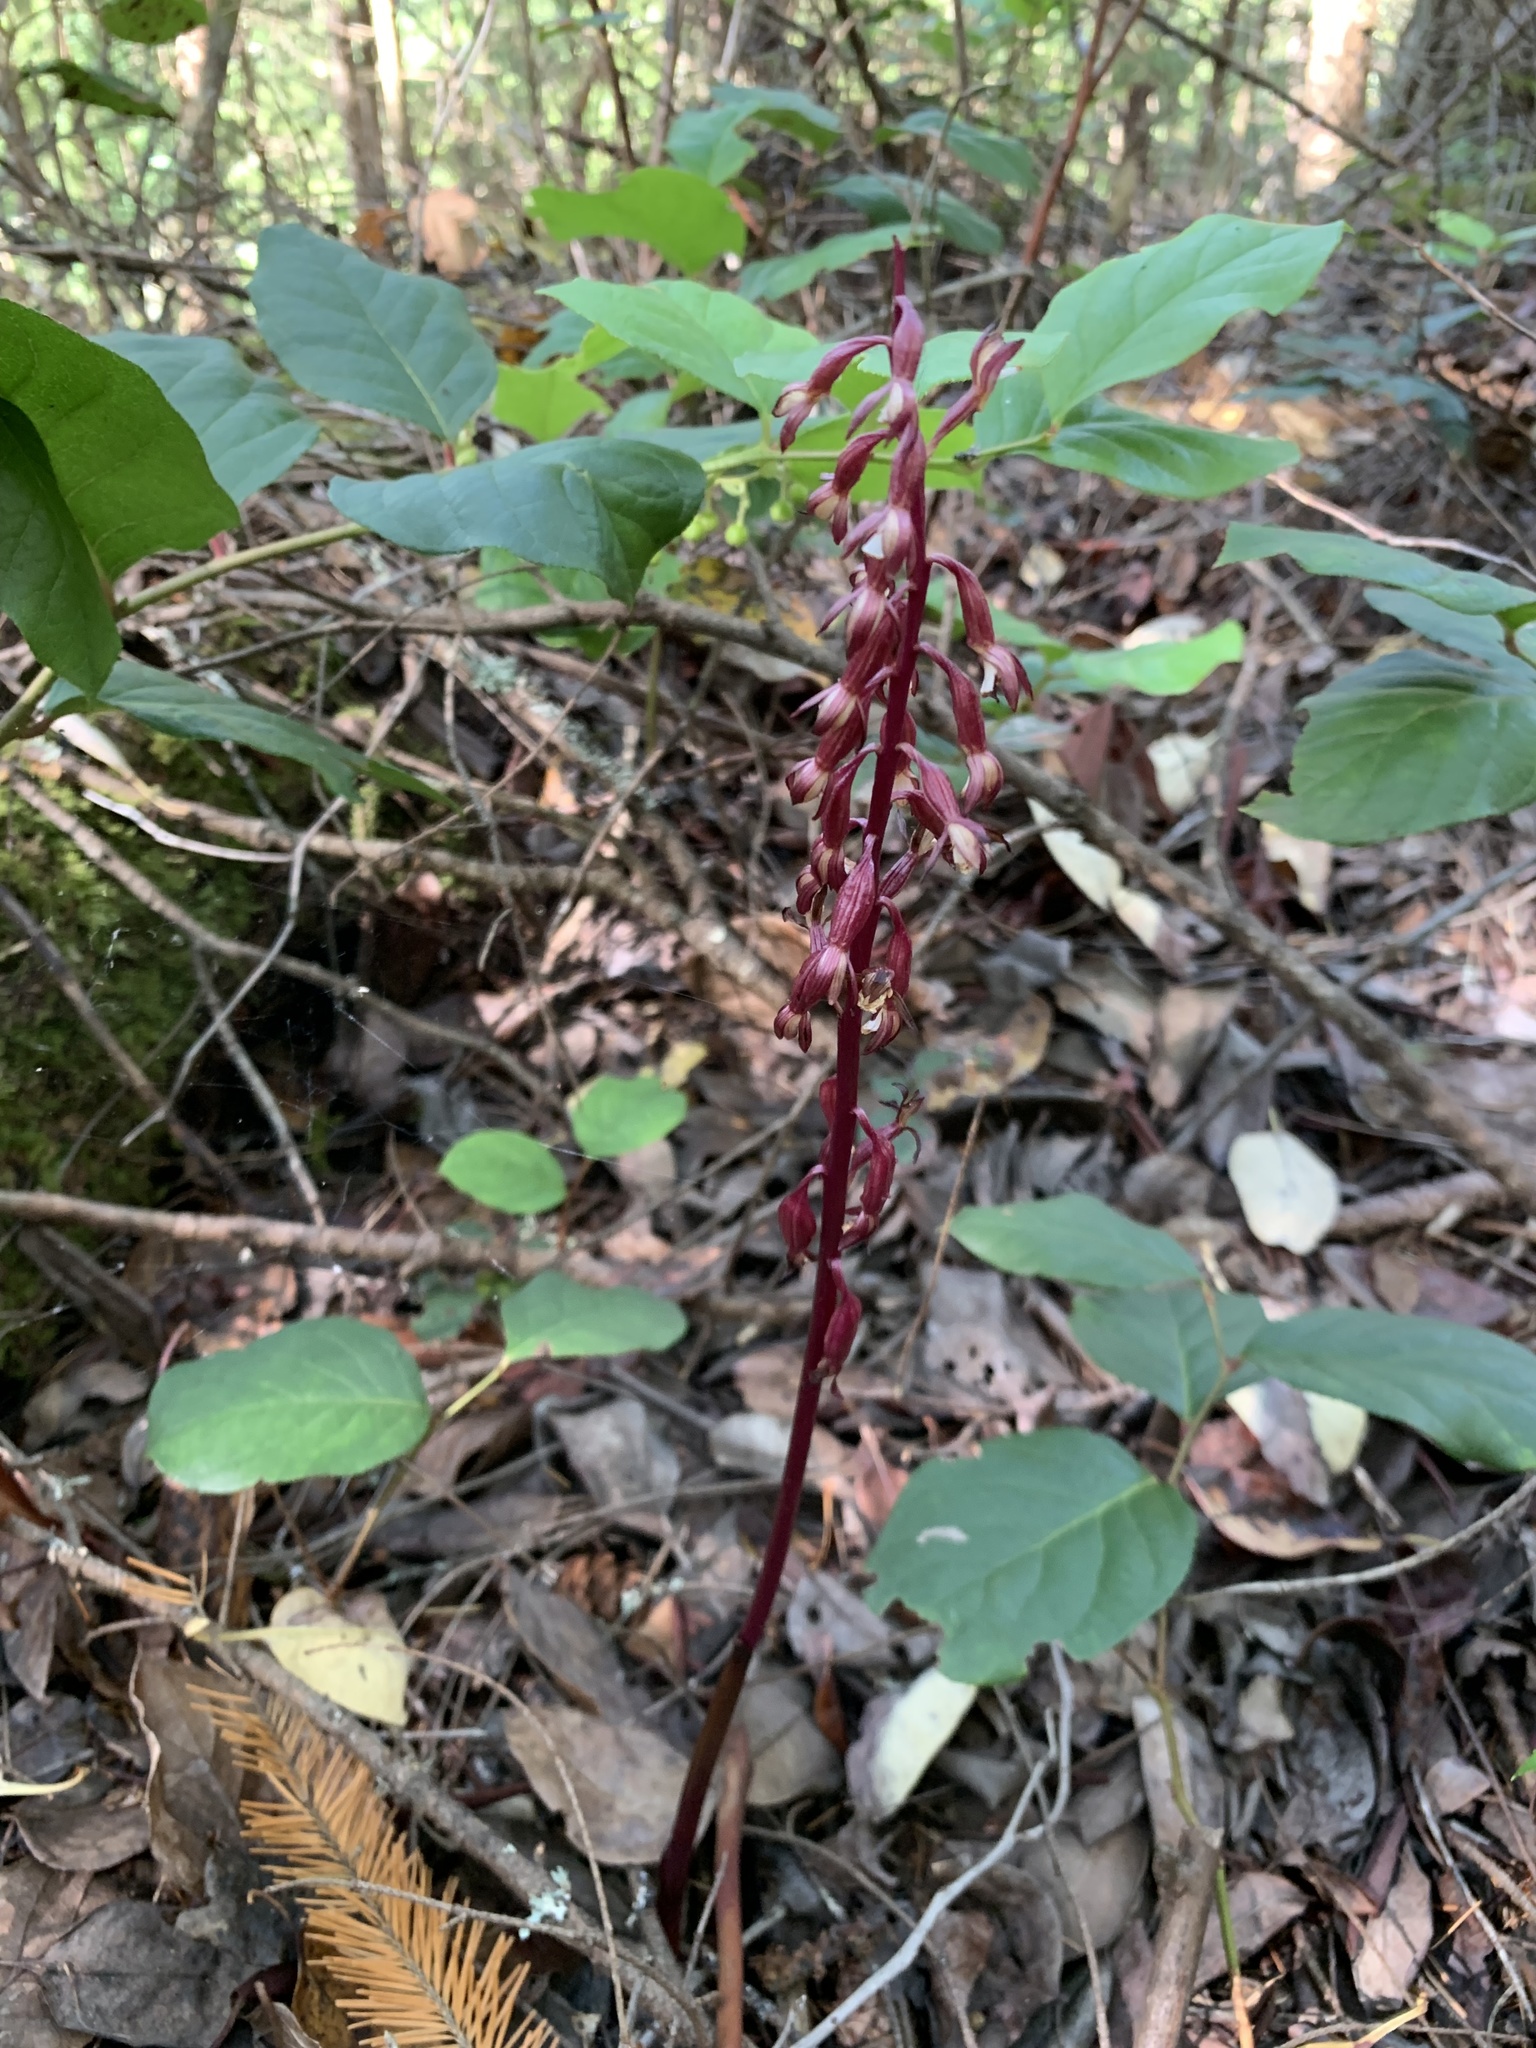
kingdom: Plantae
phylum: Tracheophyta
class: Liliopsida
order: Asparagales
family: Orchidaceae
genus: Corallorhiza
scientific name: Corallorhiza maculata
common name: Spotted coralroot
